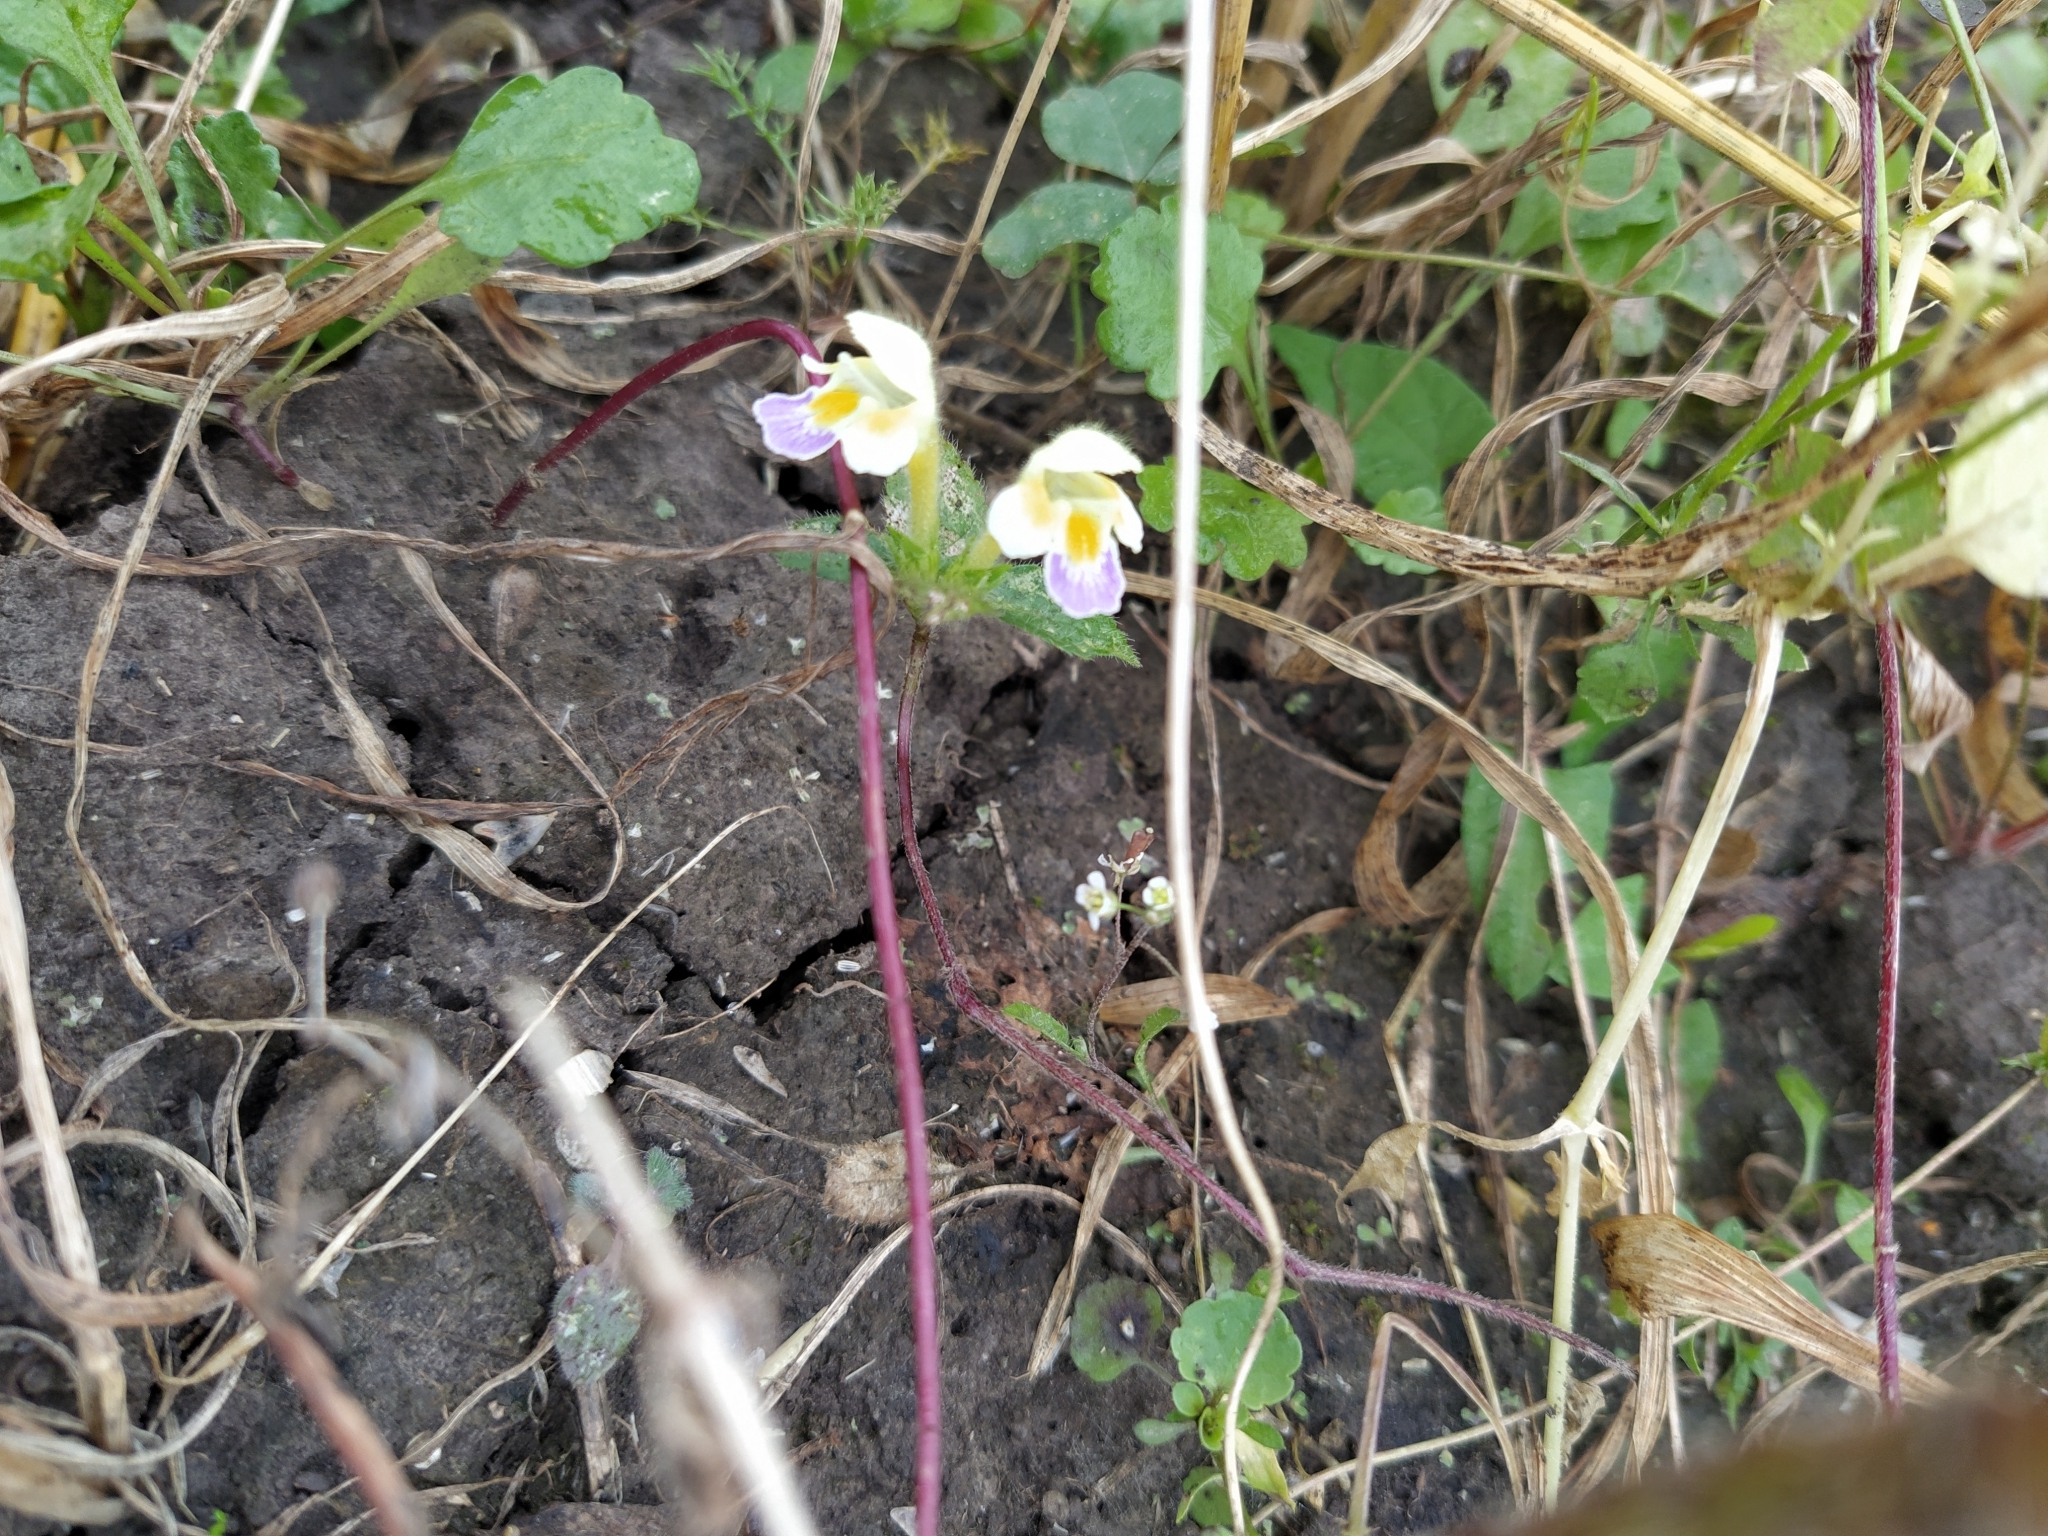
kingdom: Plantae
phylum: Tracheophyta
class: Magnoliopsida
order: Lamiales
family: Lamiaceae
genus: Galeopsis
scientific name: Galeopsis speciosa
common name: Large-flowered hemp-nettle
